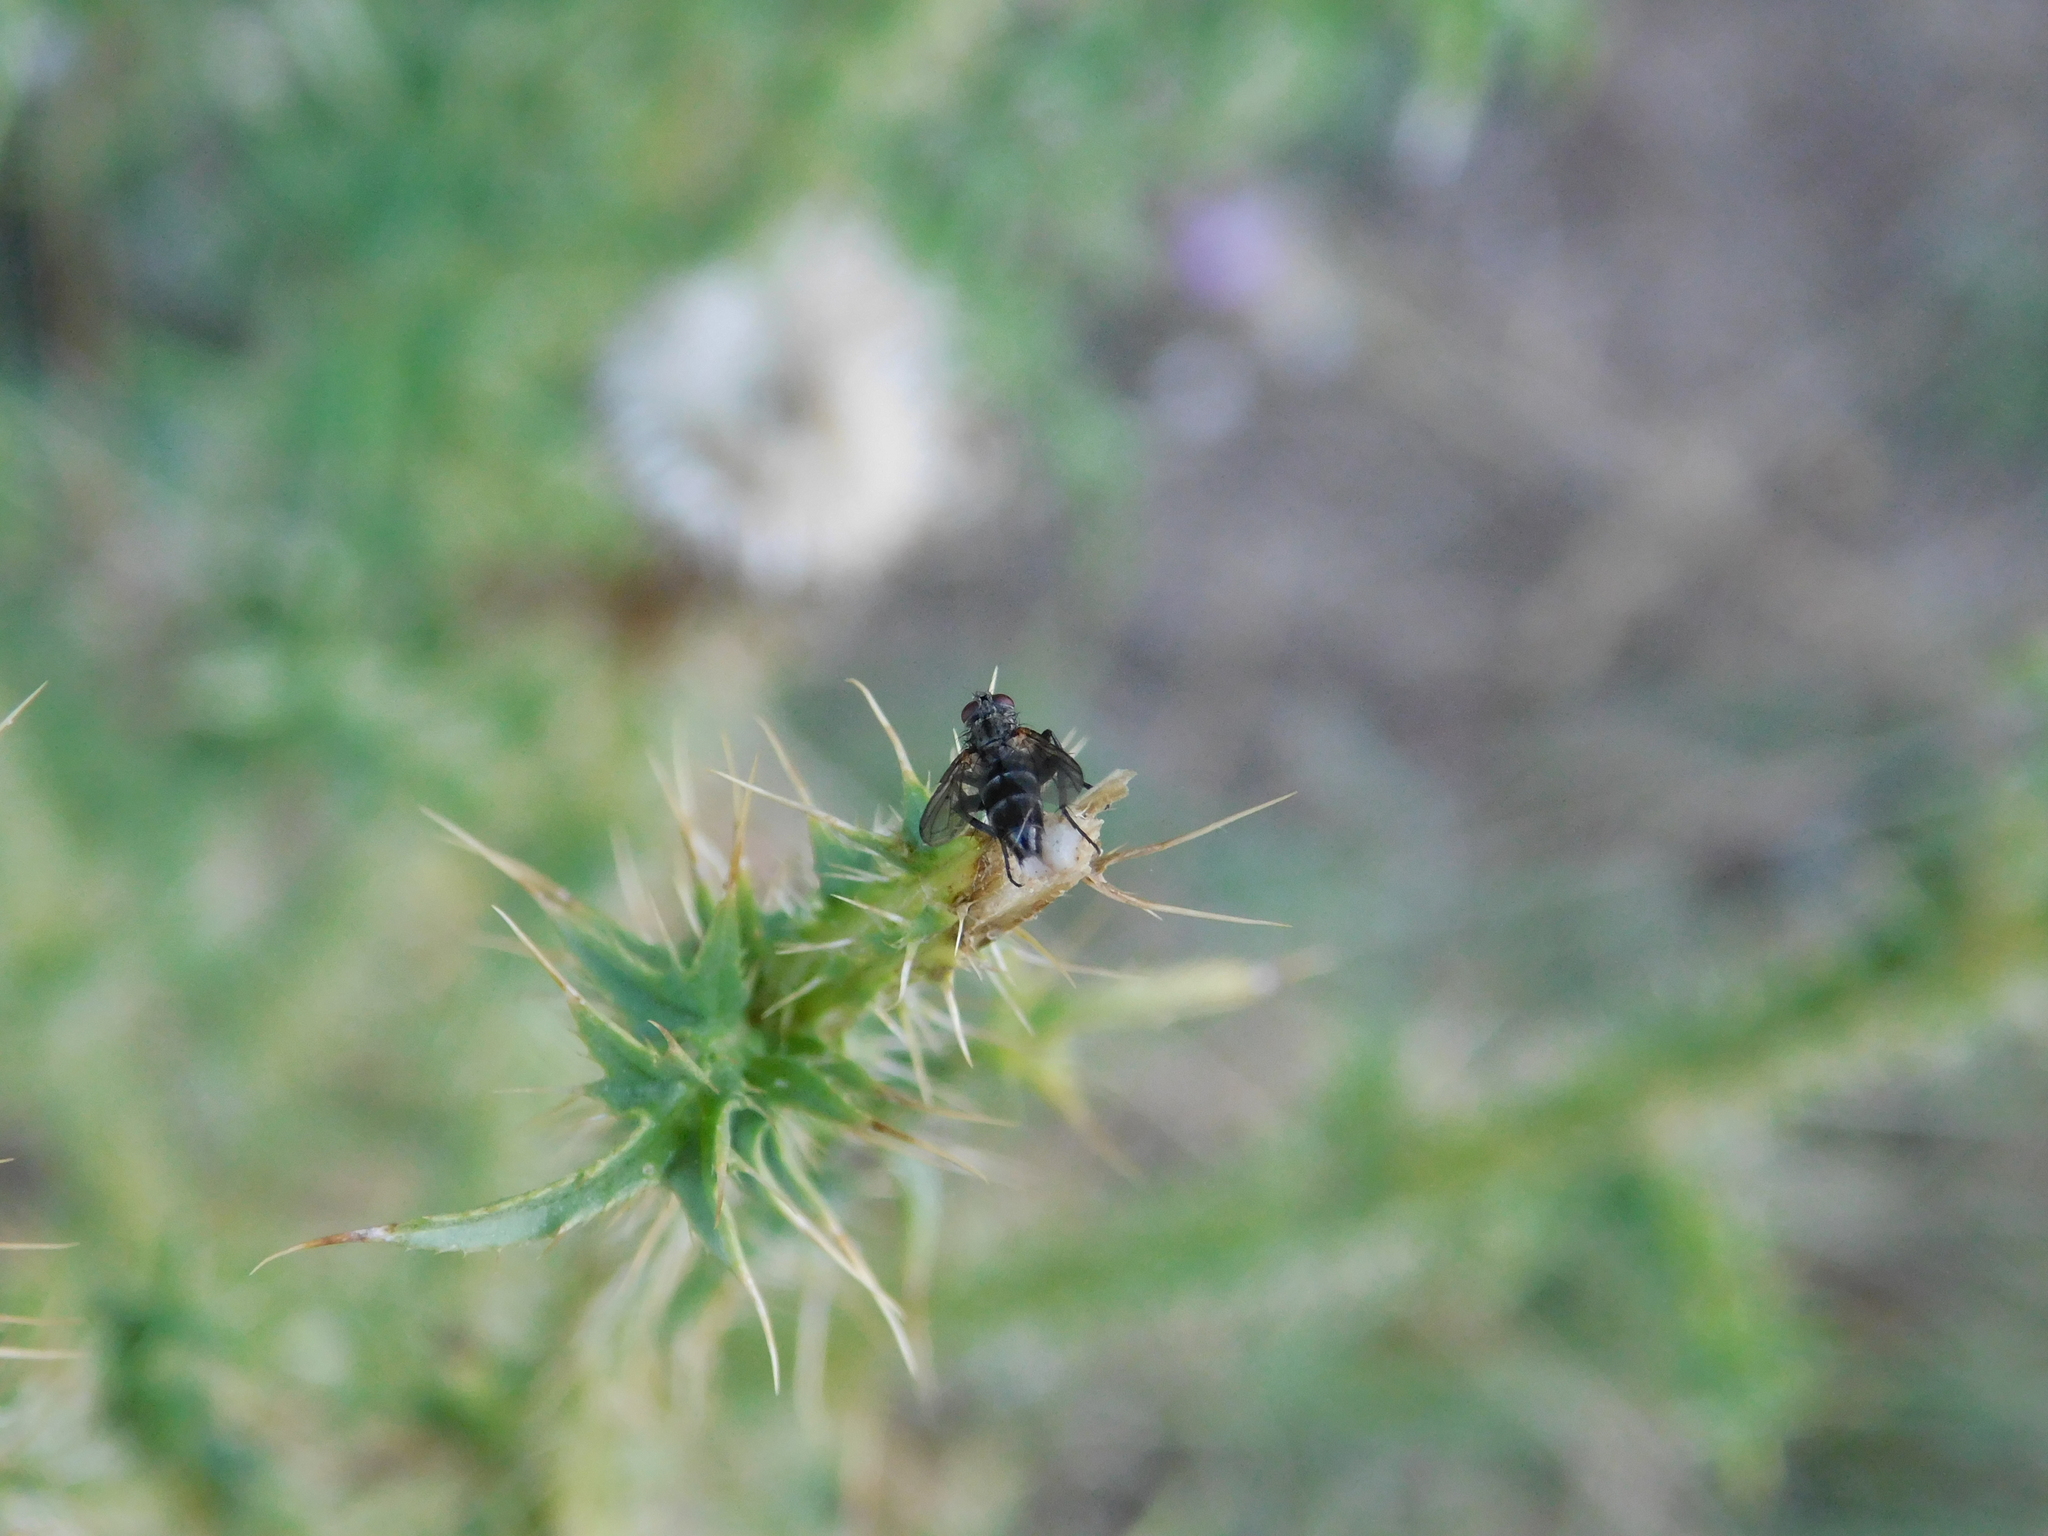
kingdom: Animalia
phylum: Arthropoda
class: Insecta
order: Diptera
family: Calliphoridae
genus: Stevenia
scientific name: Stevenia deceptoria
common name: Grizzled woodlouse-fly
